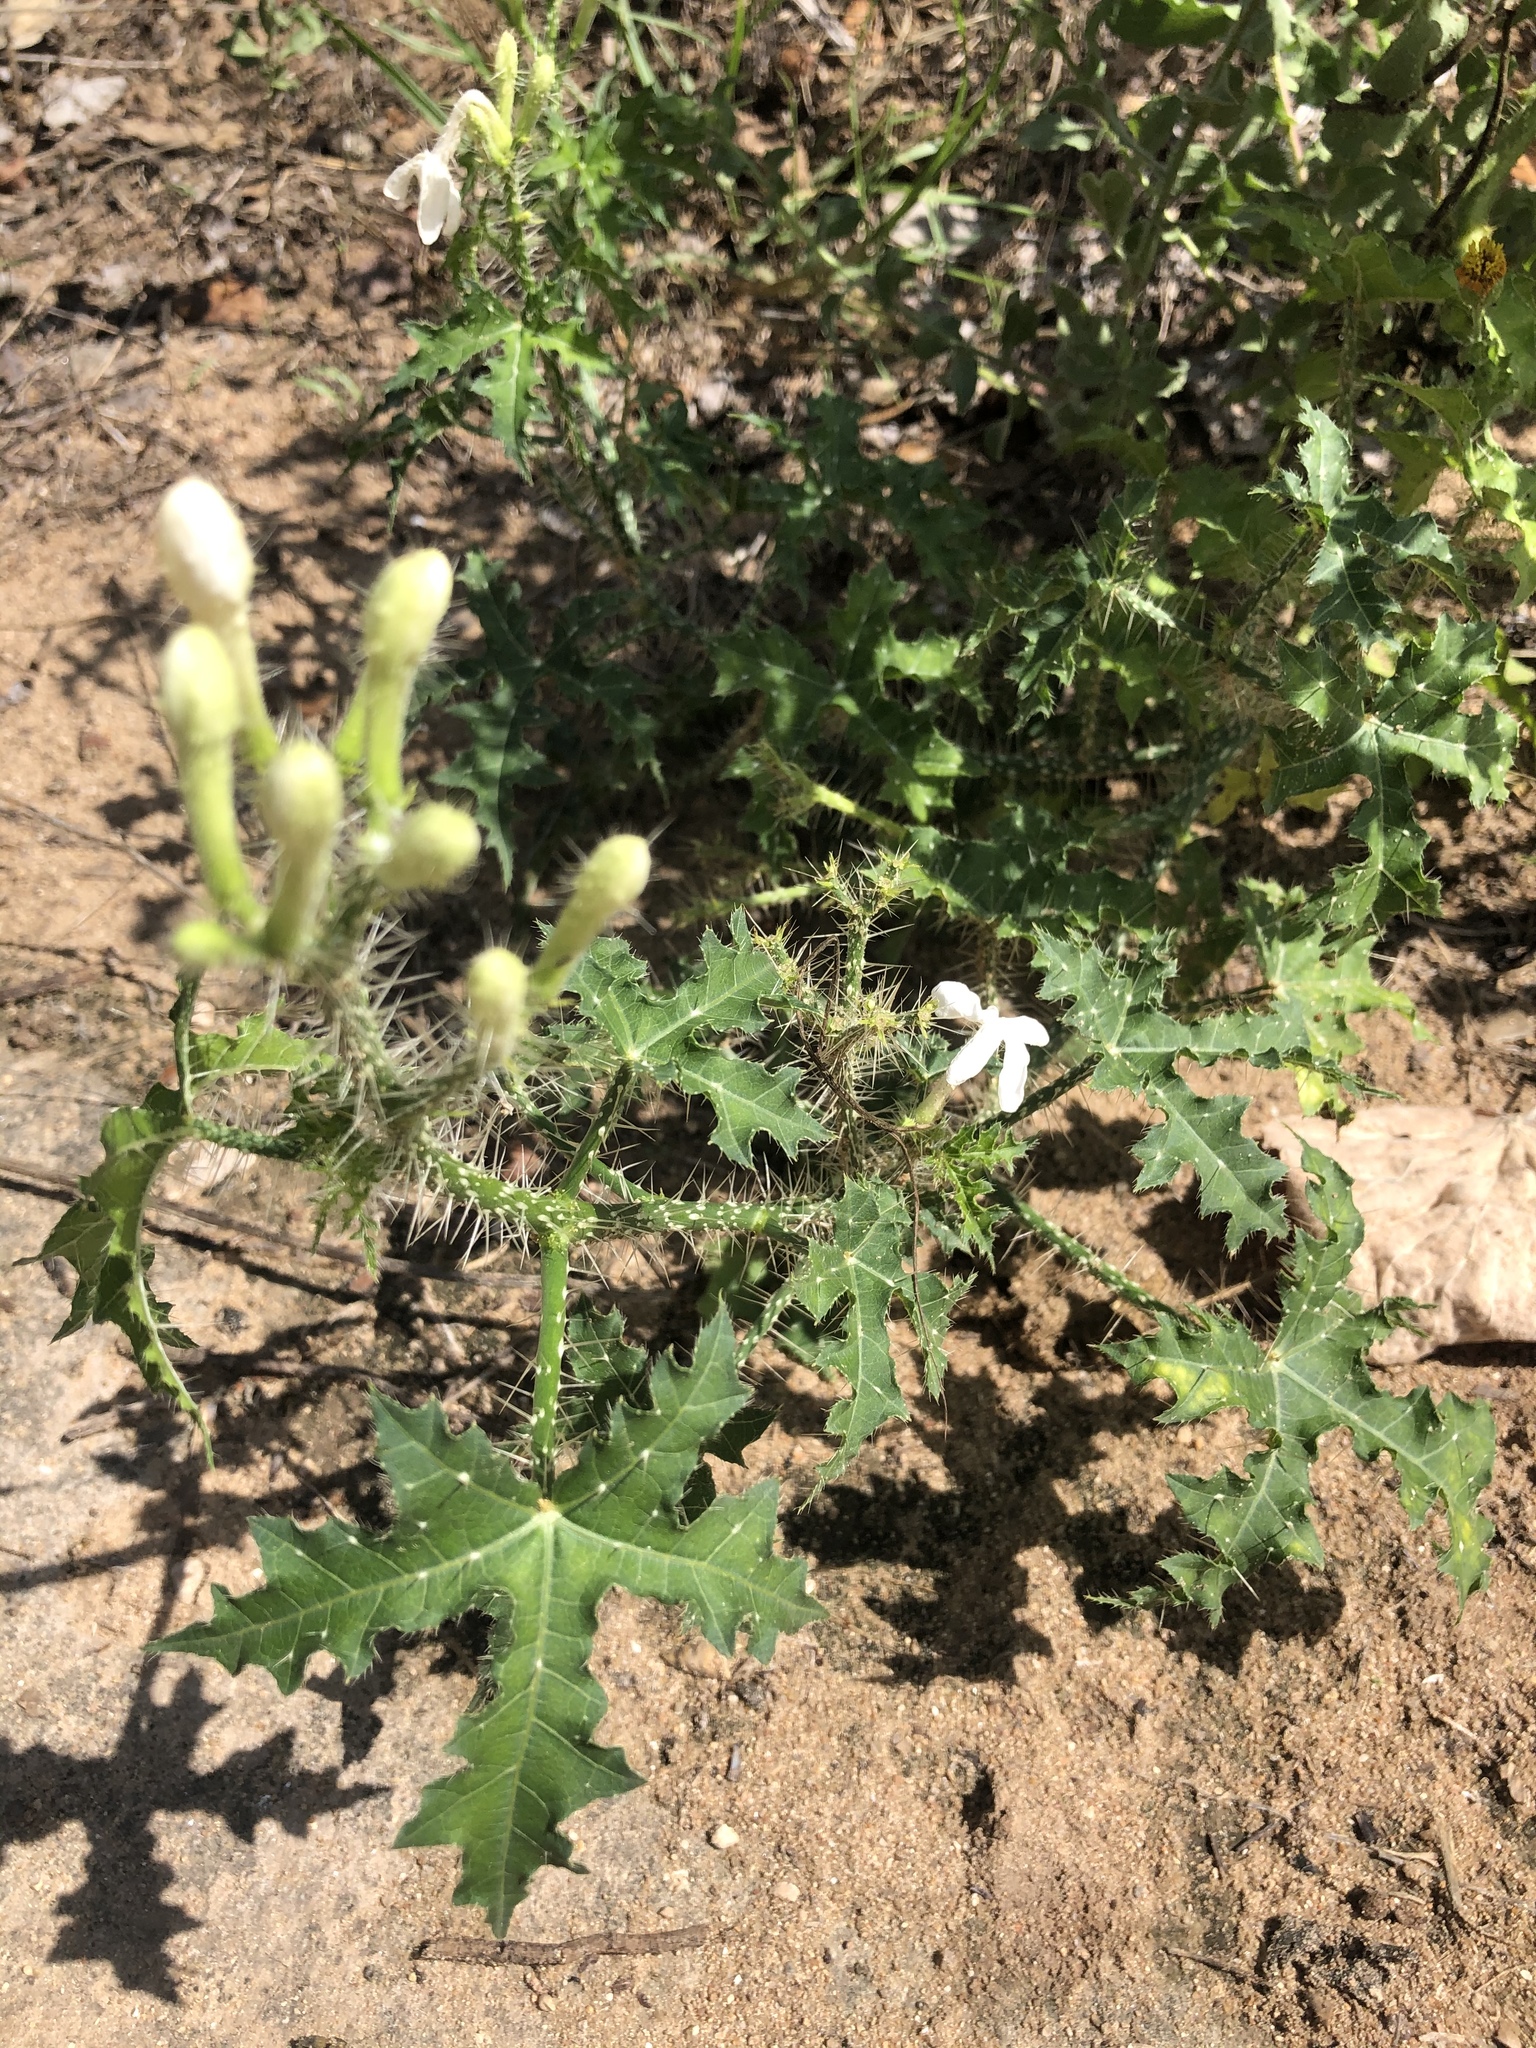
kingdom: Plantae
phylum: Tracheophyta
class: Magnoliopsida
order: Malpighiales
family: Euphorbiaceae
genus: Cnidoscolus
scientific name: Cnidoscolus texanus
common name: Texas bull-nettle
